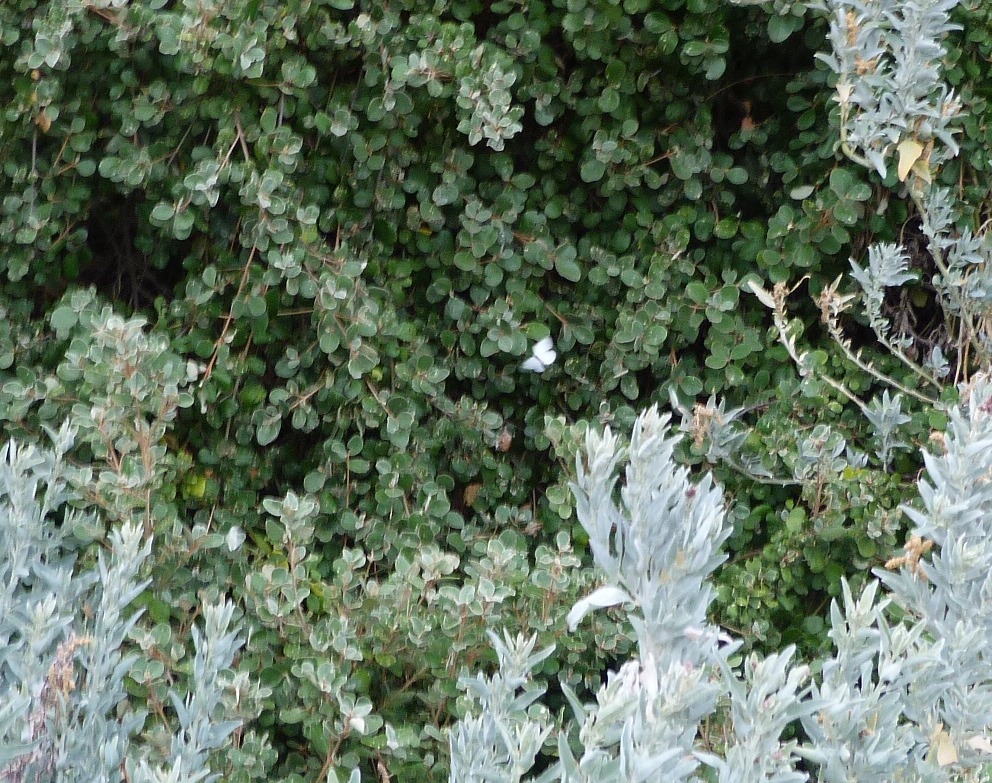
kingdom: Animalia
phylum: Arthropoda
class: Insecta
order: Lepidoptera
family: Pieridae
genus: Pieris
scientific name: Pieris rapae
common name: Small white
